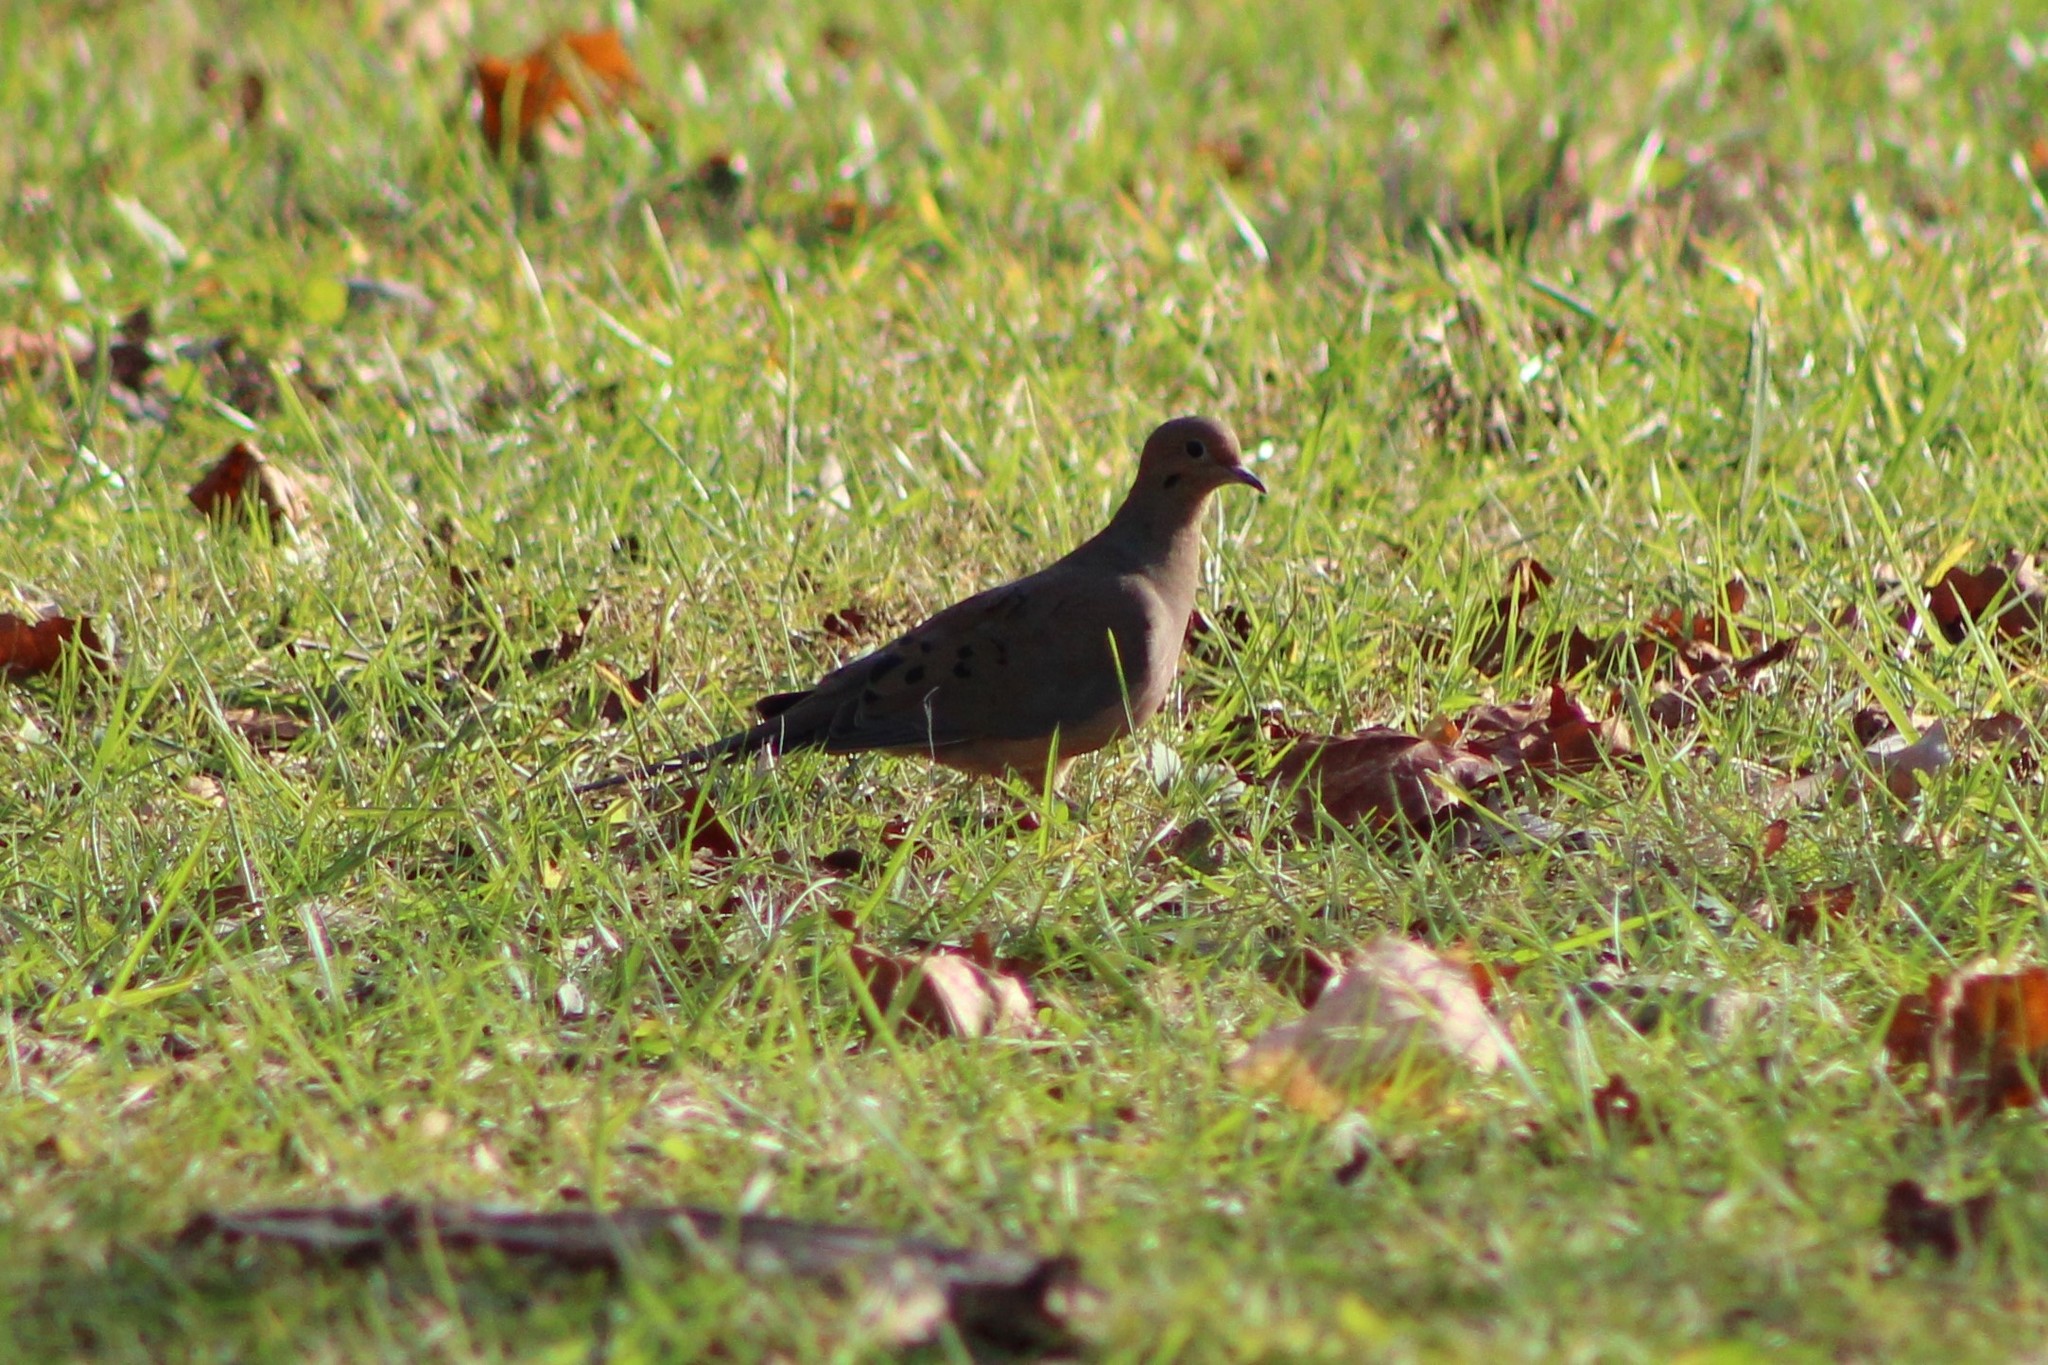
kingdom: Animalia
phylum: Chordata
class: Aves
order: Columbiformes
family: Columbidae
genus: Zenaida
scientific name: Zenaida macroura
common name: Mourning dove
